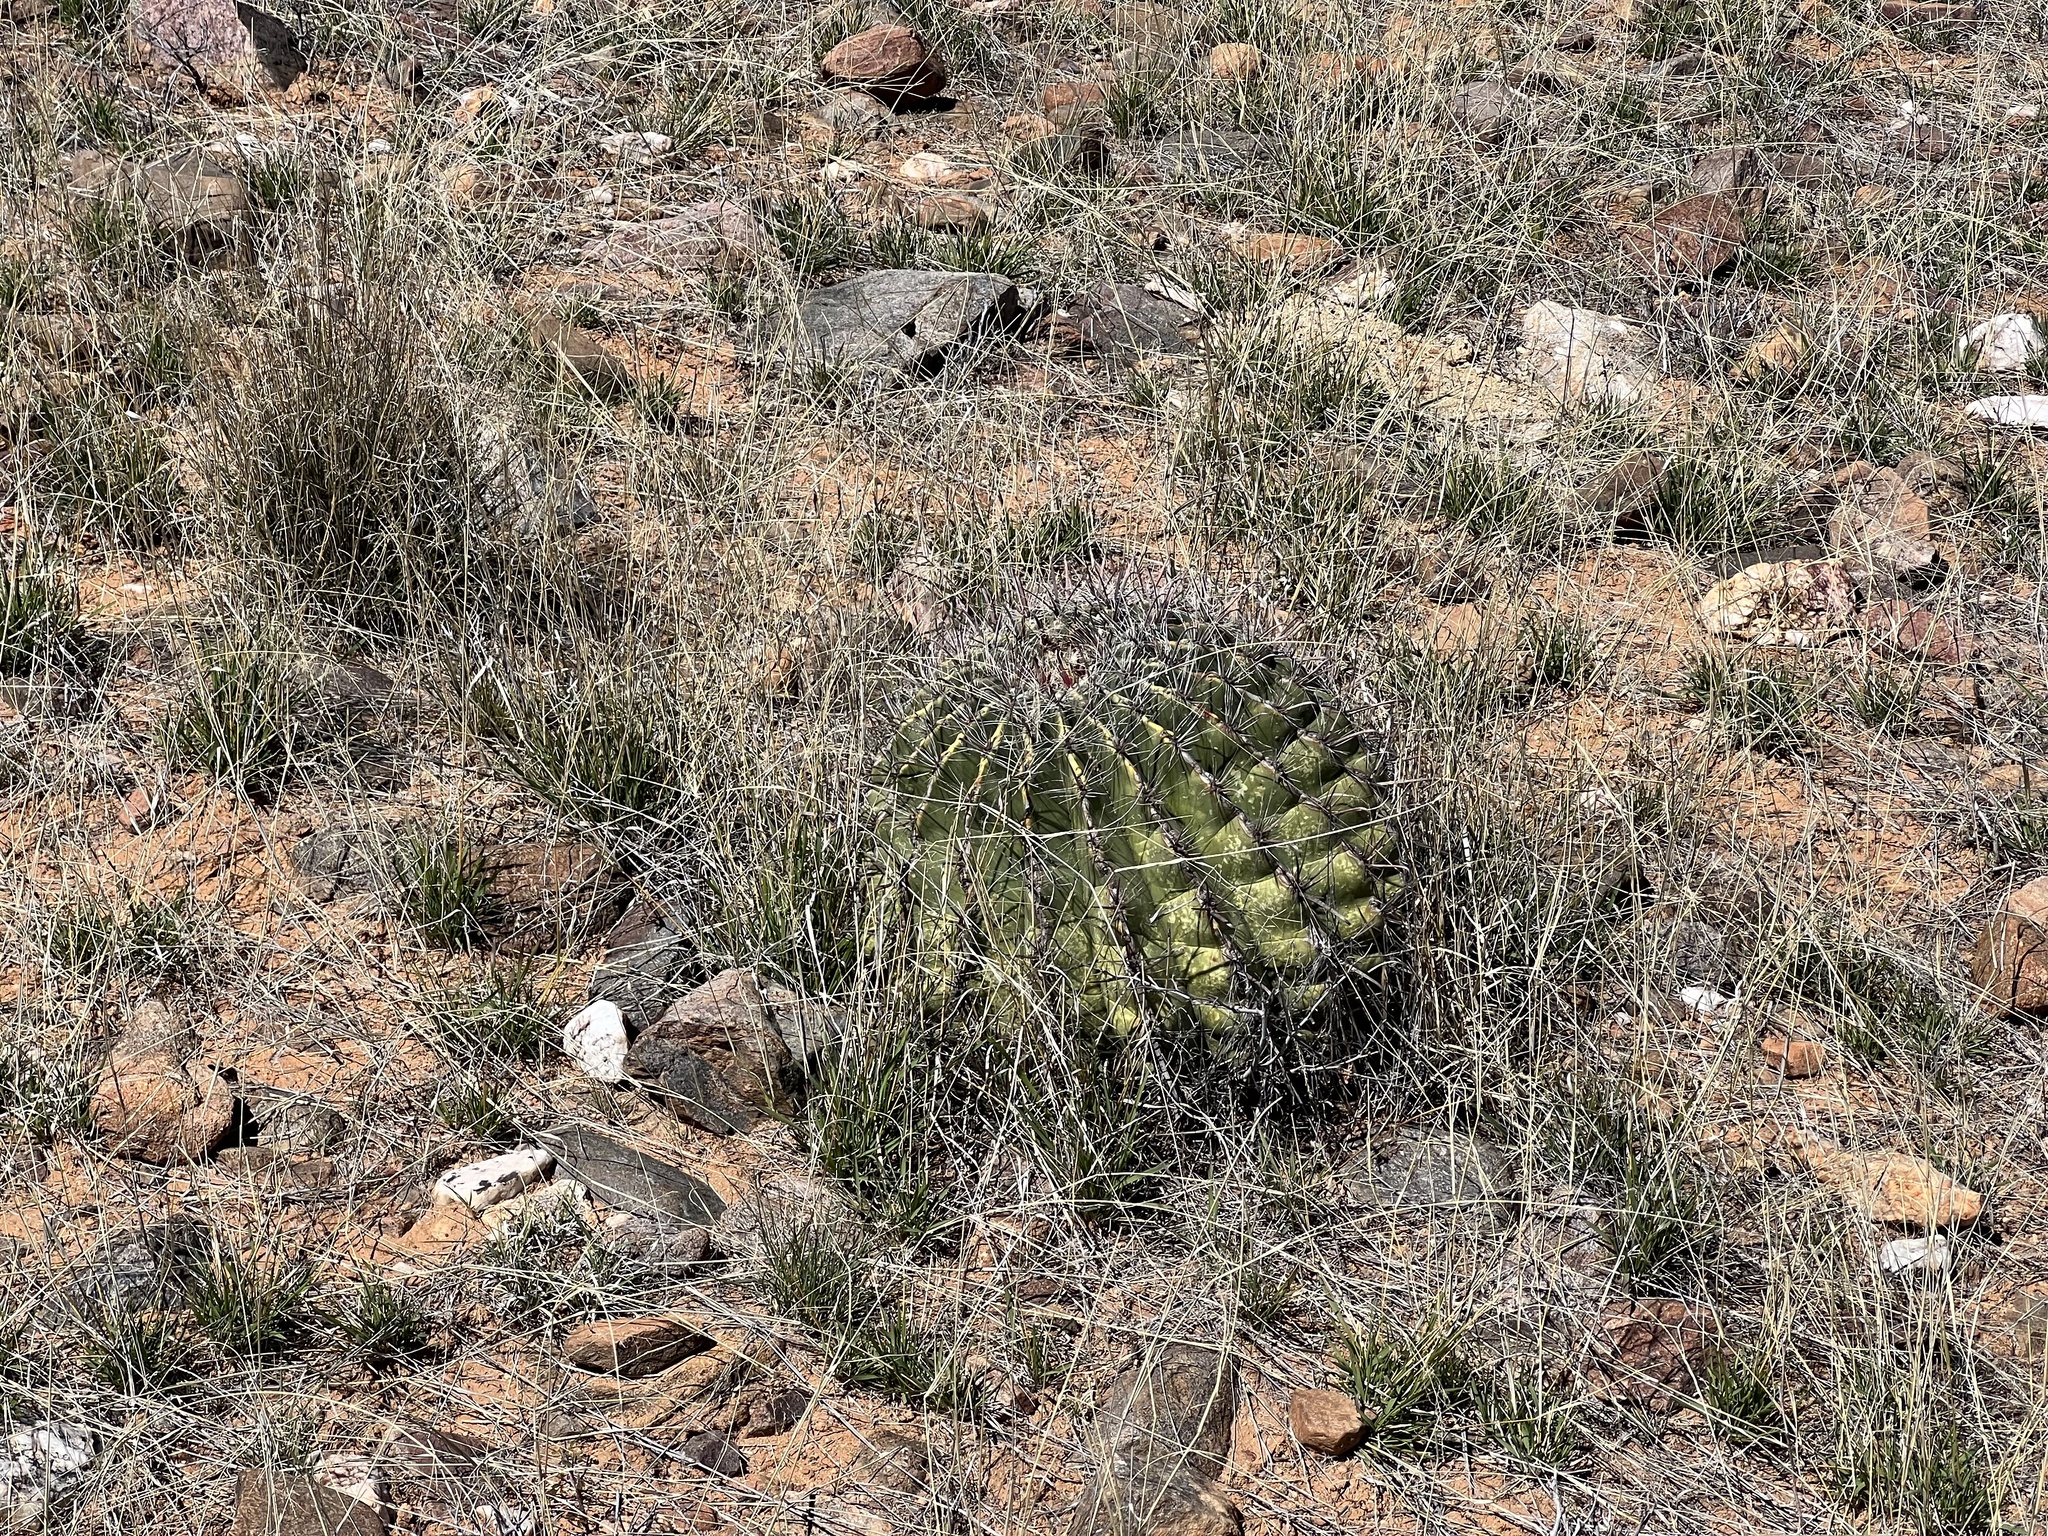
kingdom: Plantae
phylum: Tracheophyta
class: Magnoliopsida
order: Caryophyllales
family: Cactaceae
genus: Ferocactus
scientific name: Ferocactus wislizeni
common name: Candy barrel cactus
